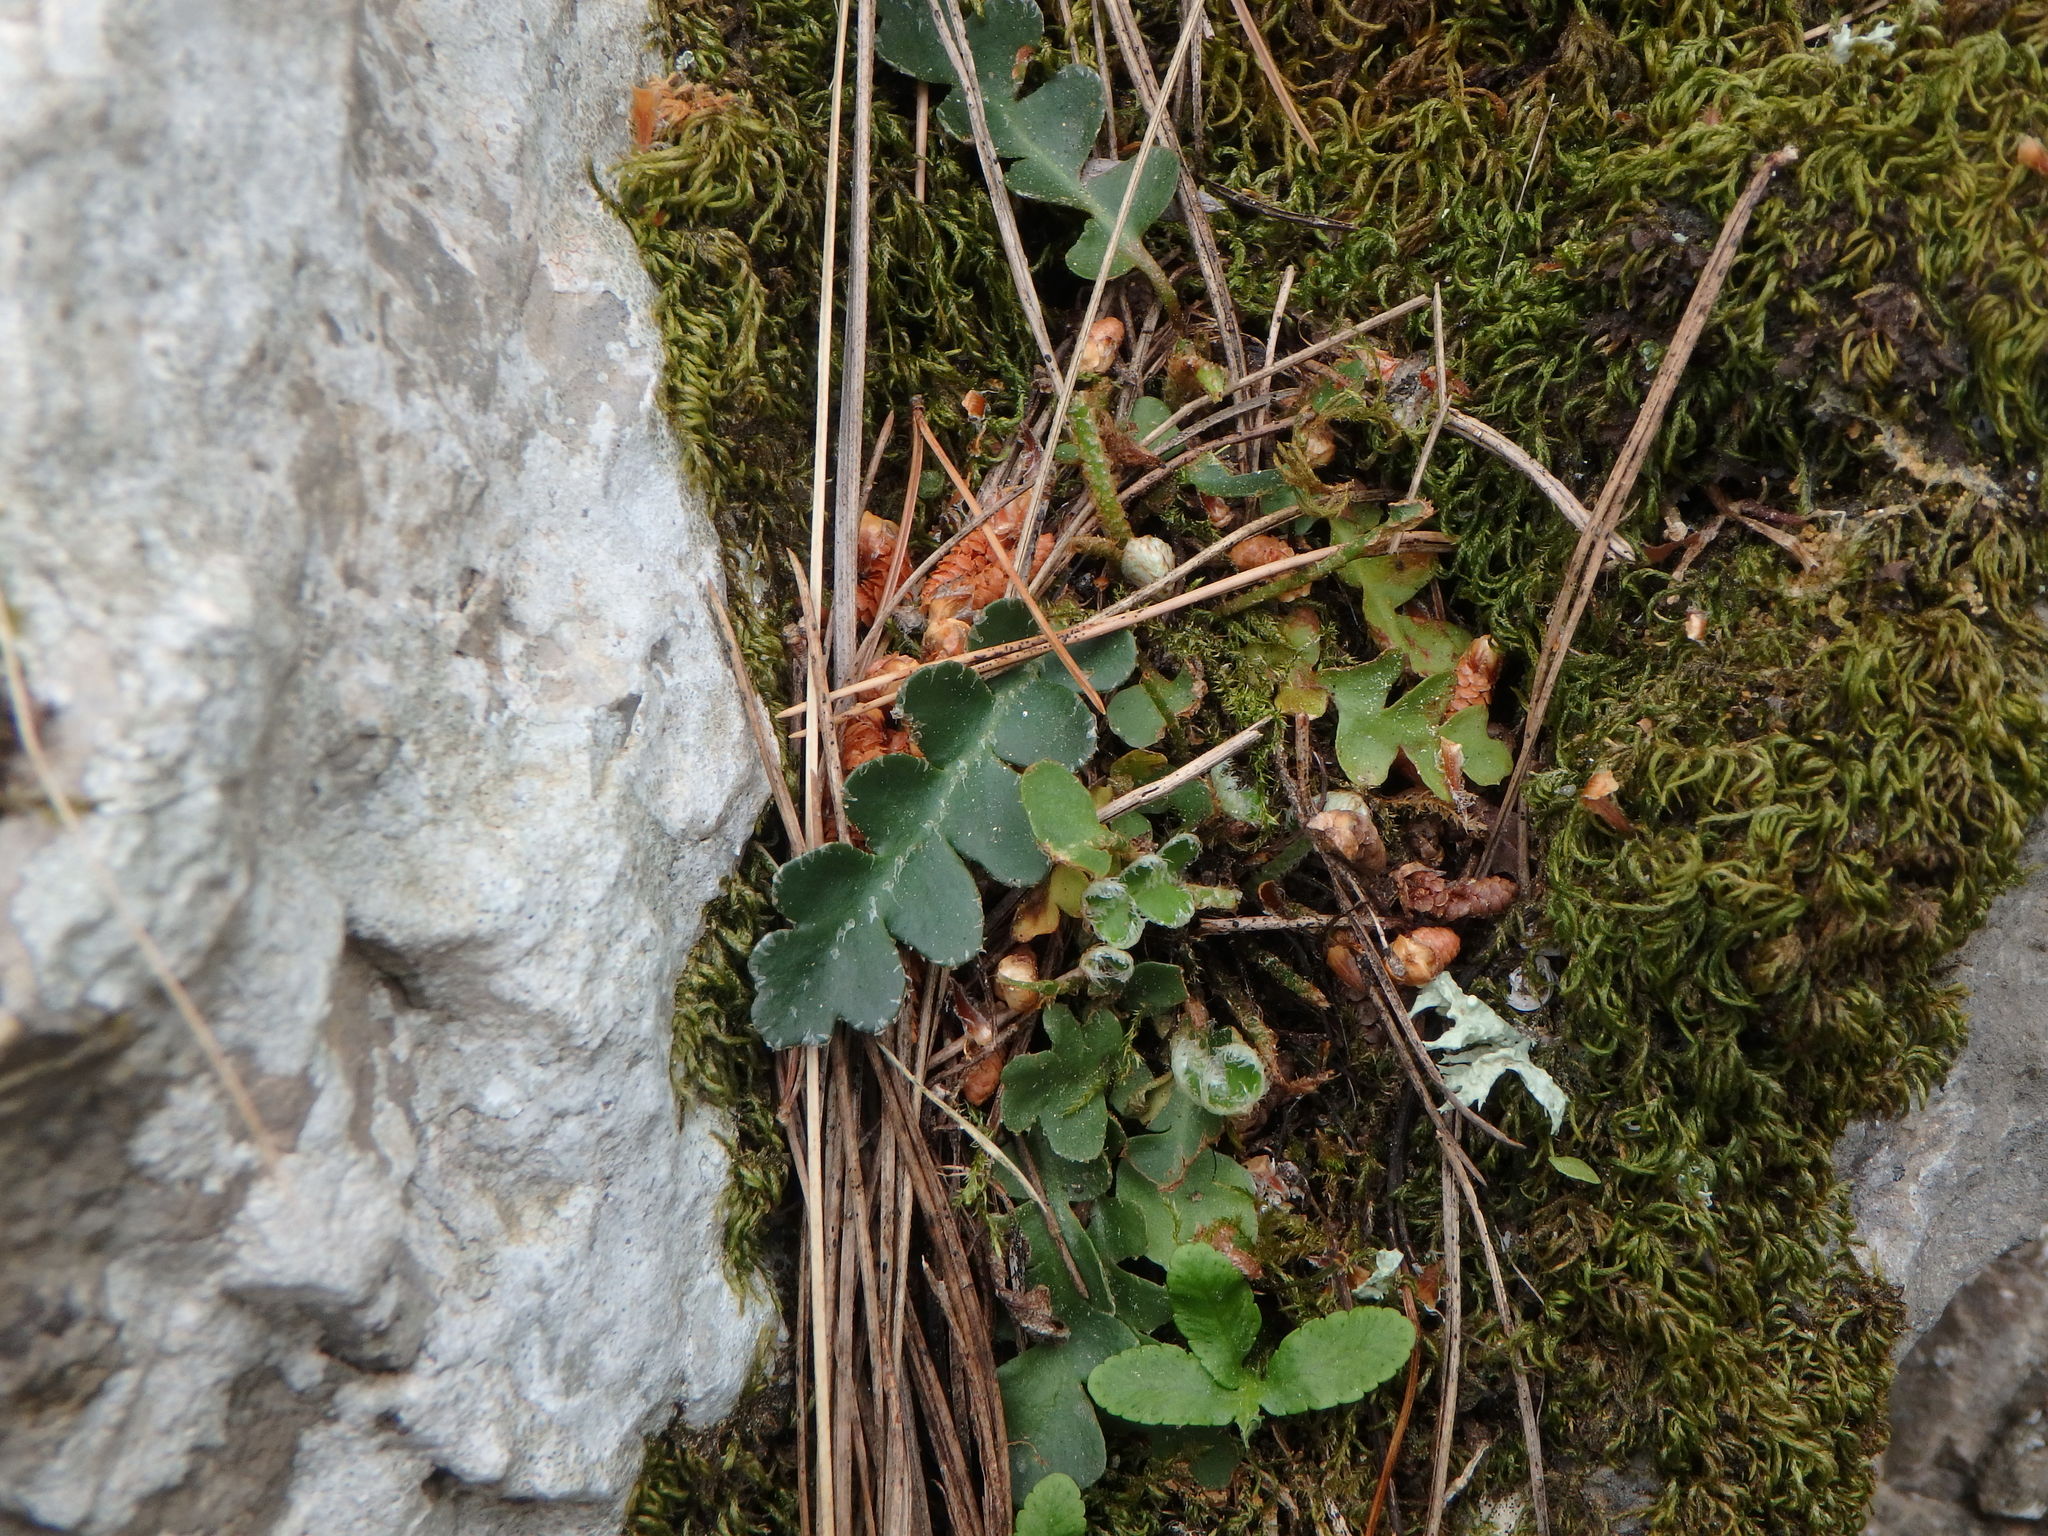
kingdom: Plantae
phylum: Tracheophyta
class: Polypodiopsida
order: Polypodiales
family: Aspleniaceae
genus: Asplenium
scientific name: Asplenium ceterach
